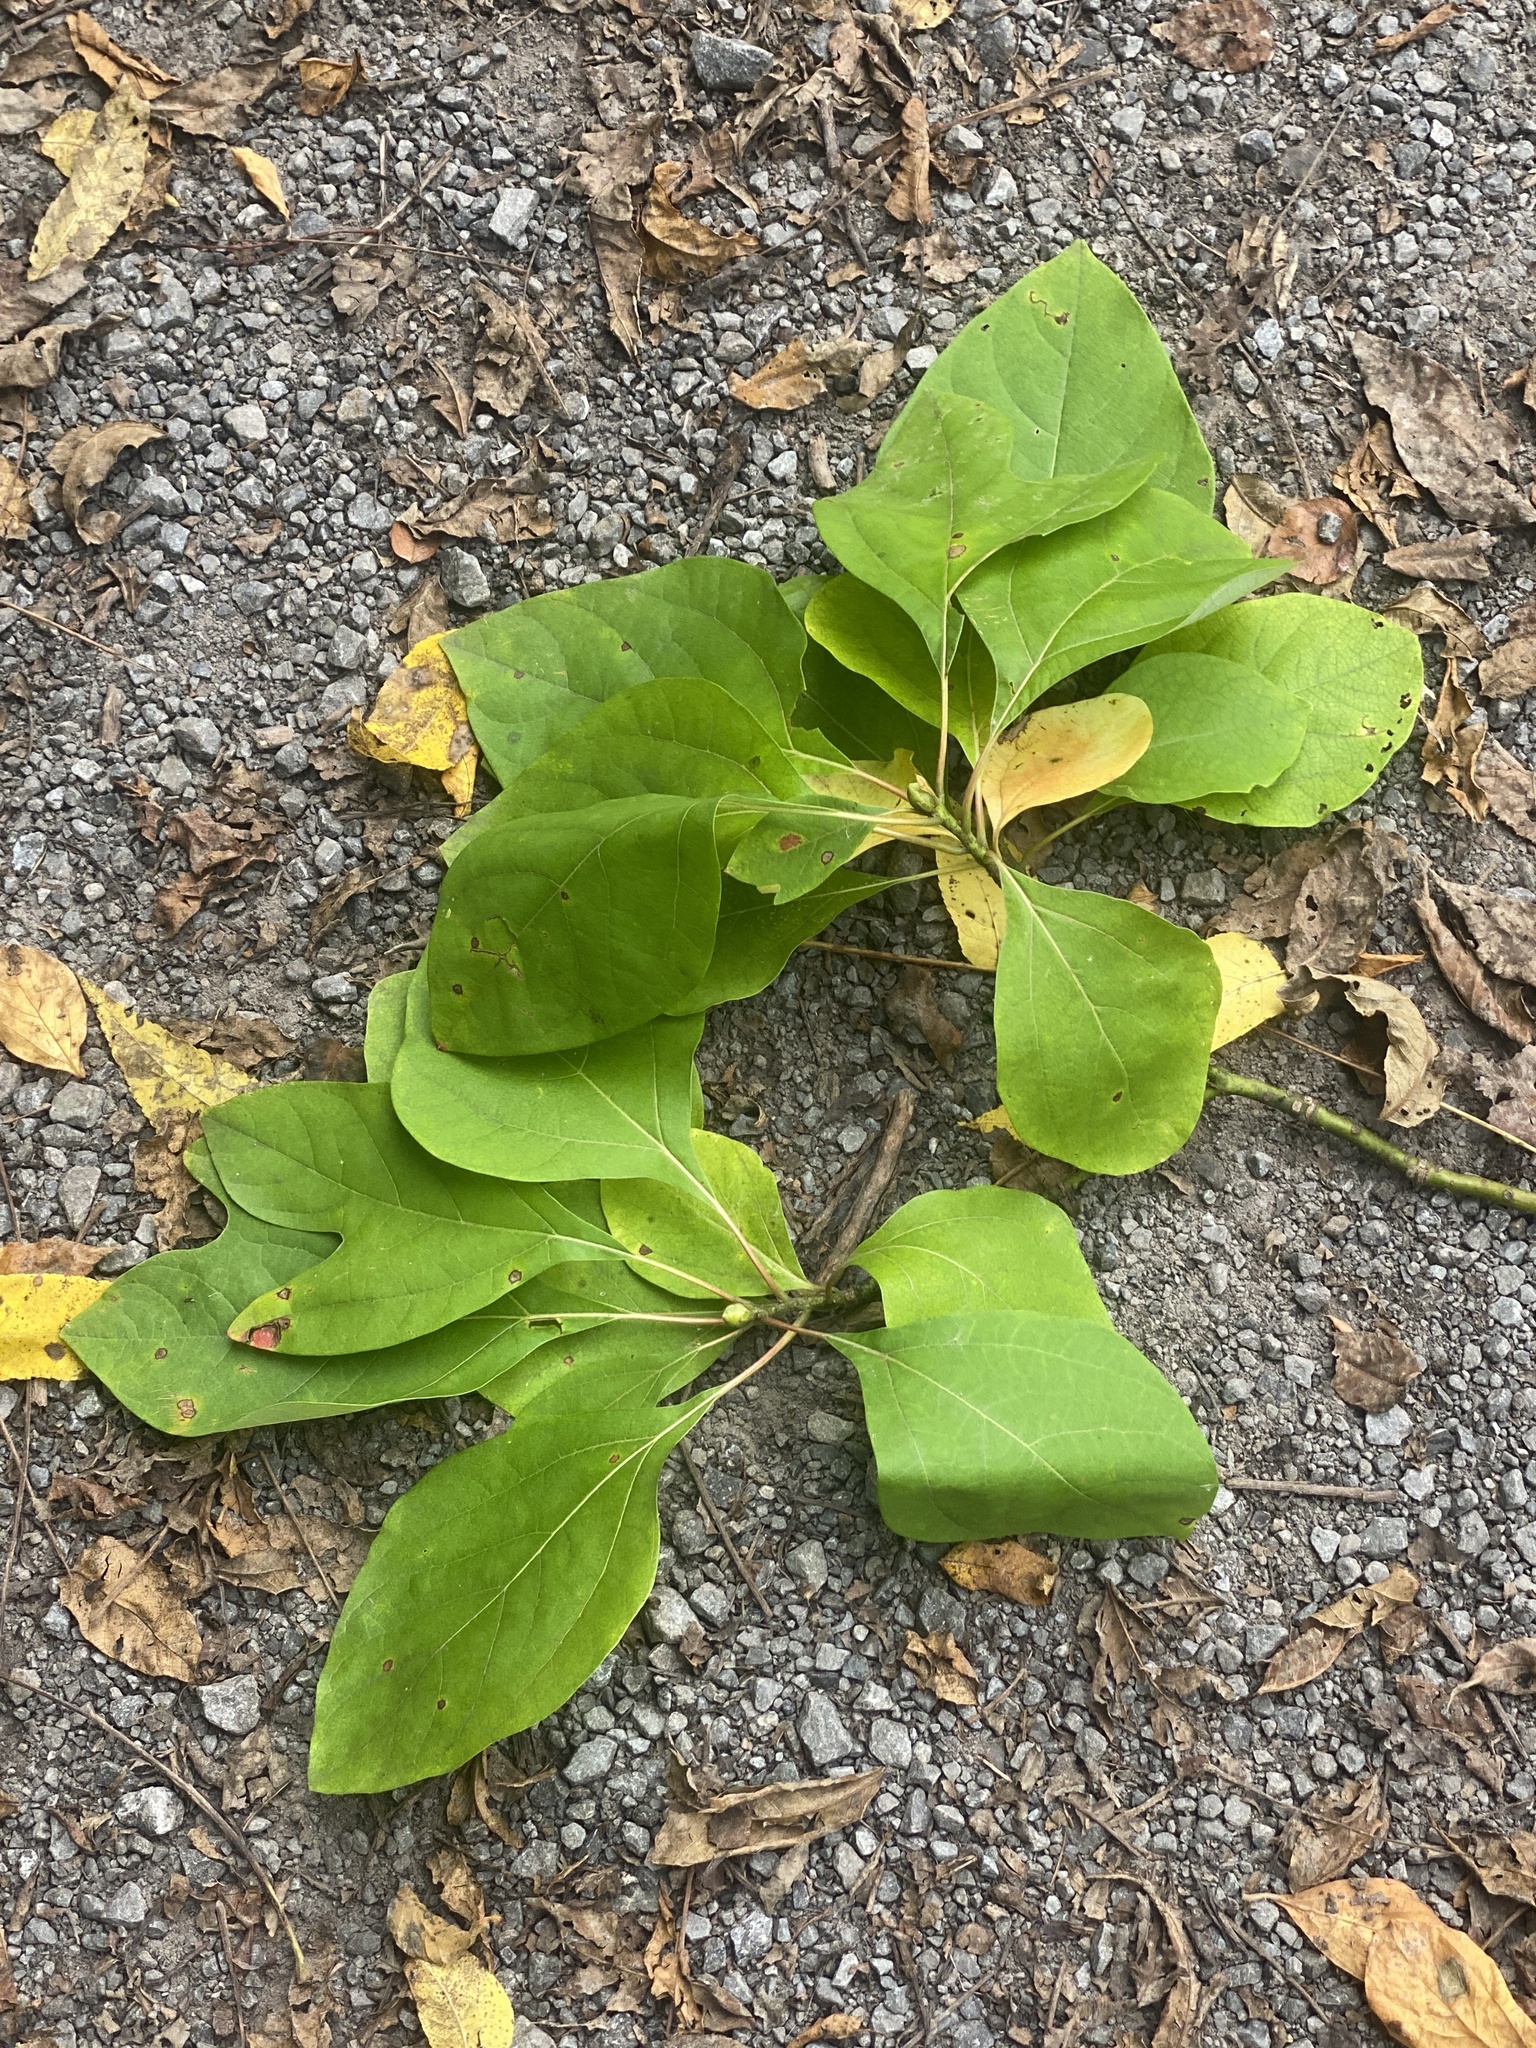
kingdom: Plantae
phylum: Tracheophyta
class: Magnoliopsida
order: Laurales
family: Lauraceae
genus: Sassafras
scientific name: Sassafras albidum
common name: Sassafras
